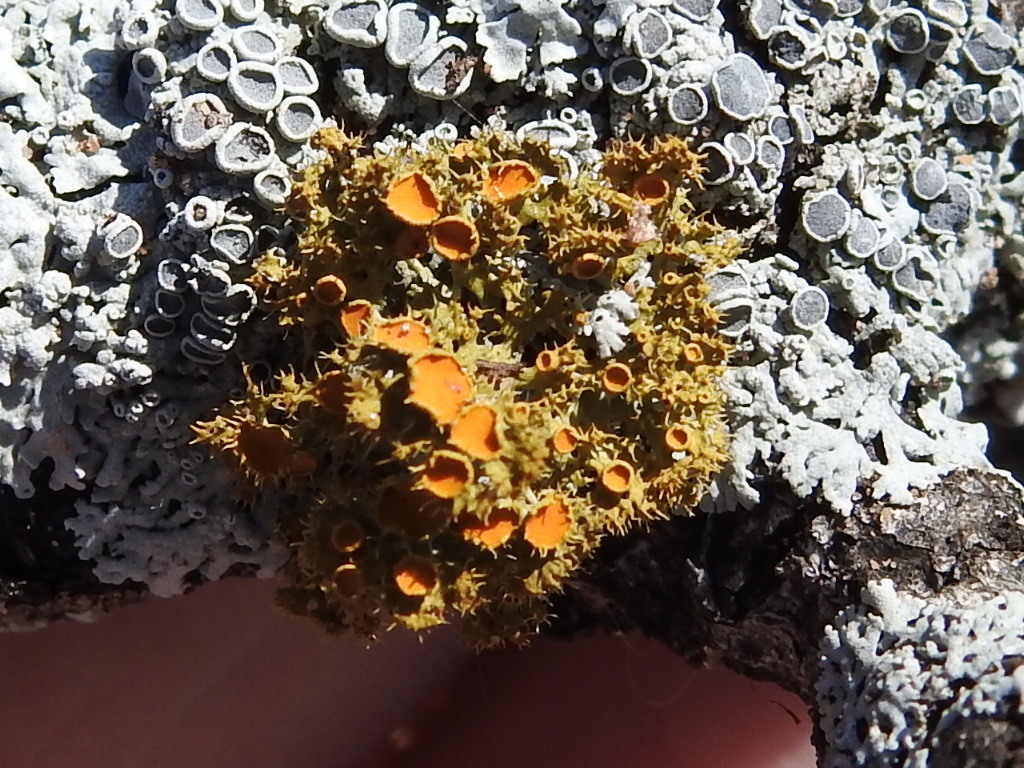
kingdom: Fungi
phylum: Ascomycota
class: Lecanoromycetes
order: Teloschistales
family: Teloschistaceae
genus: Niorma
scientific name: Niorma chrysophthalma
